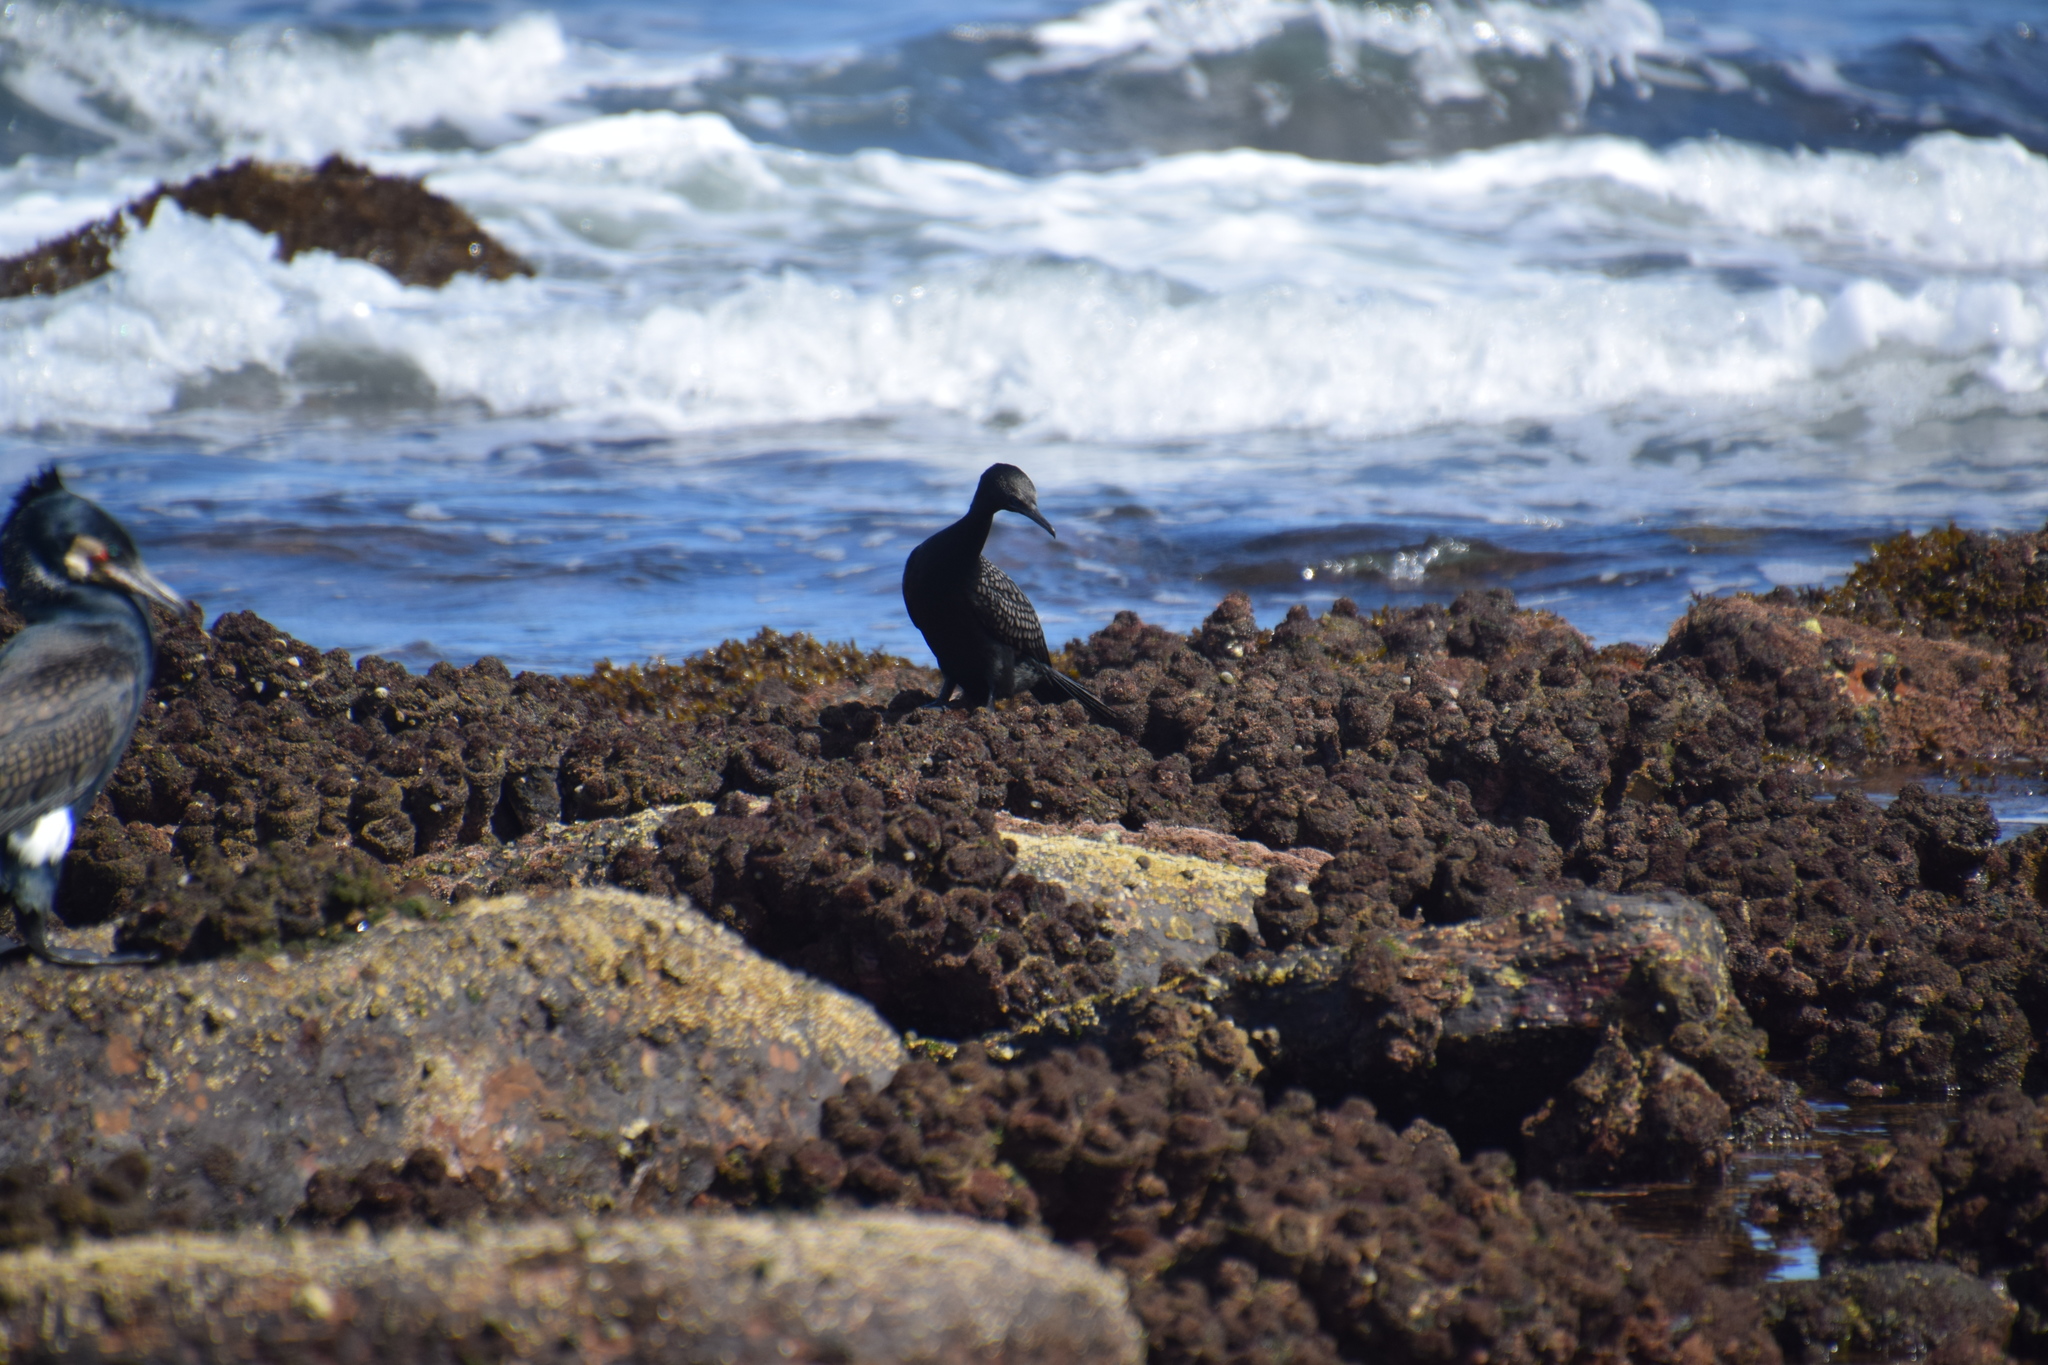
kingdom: Animalia
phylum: Chordata
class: Aves
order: Suliformes
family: Phalacrocoracidae
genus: Phalacrocorax
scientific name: Phalacrocorax sulcirostris
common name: Little black cormorant
